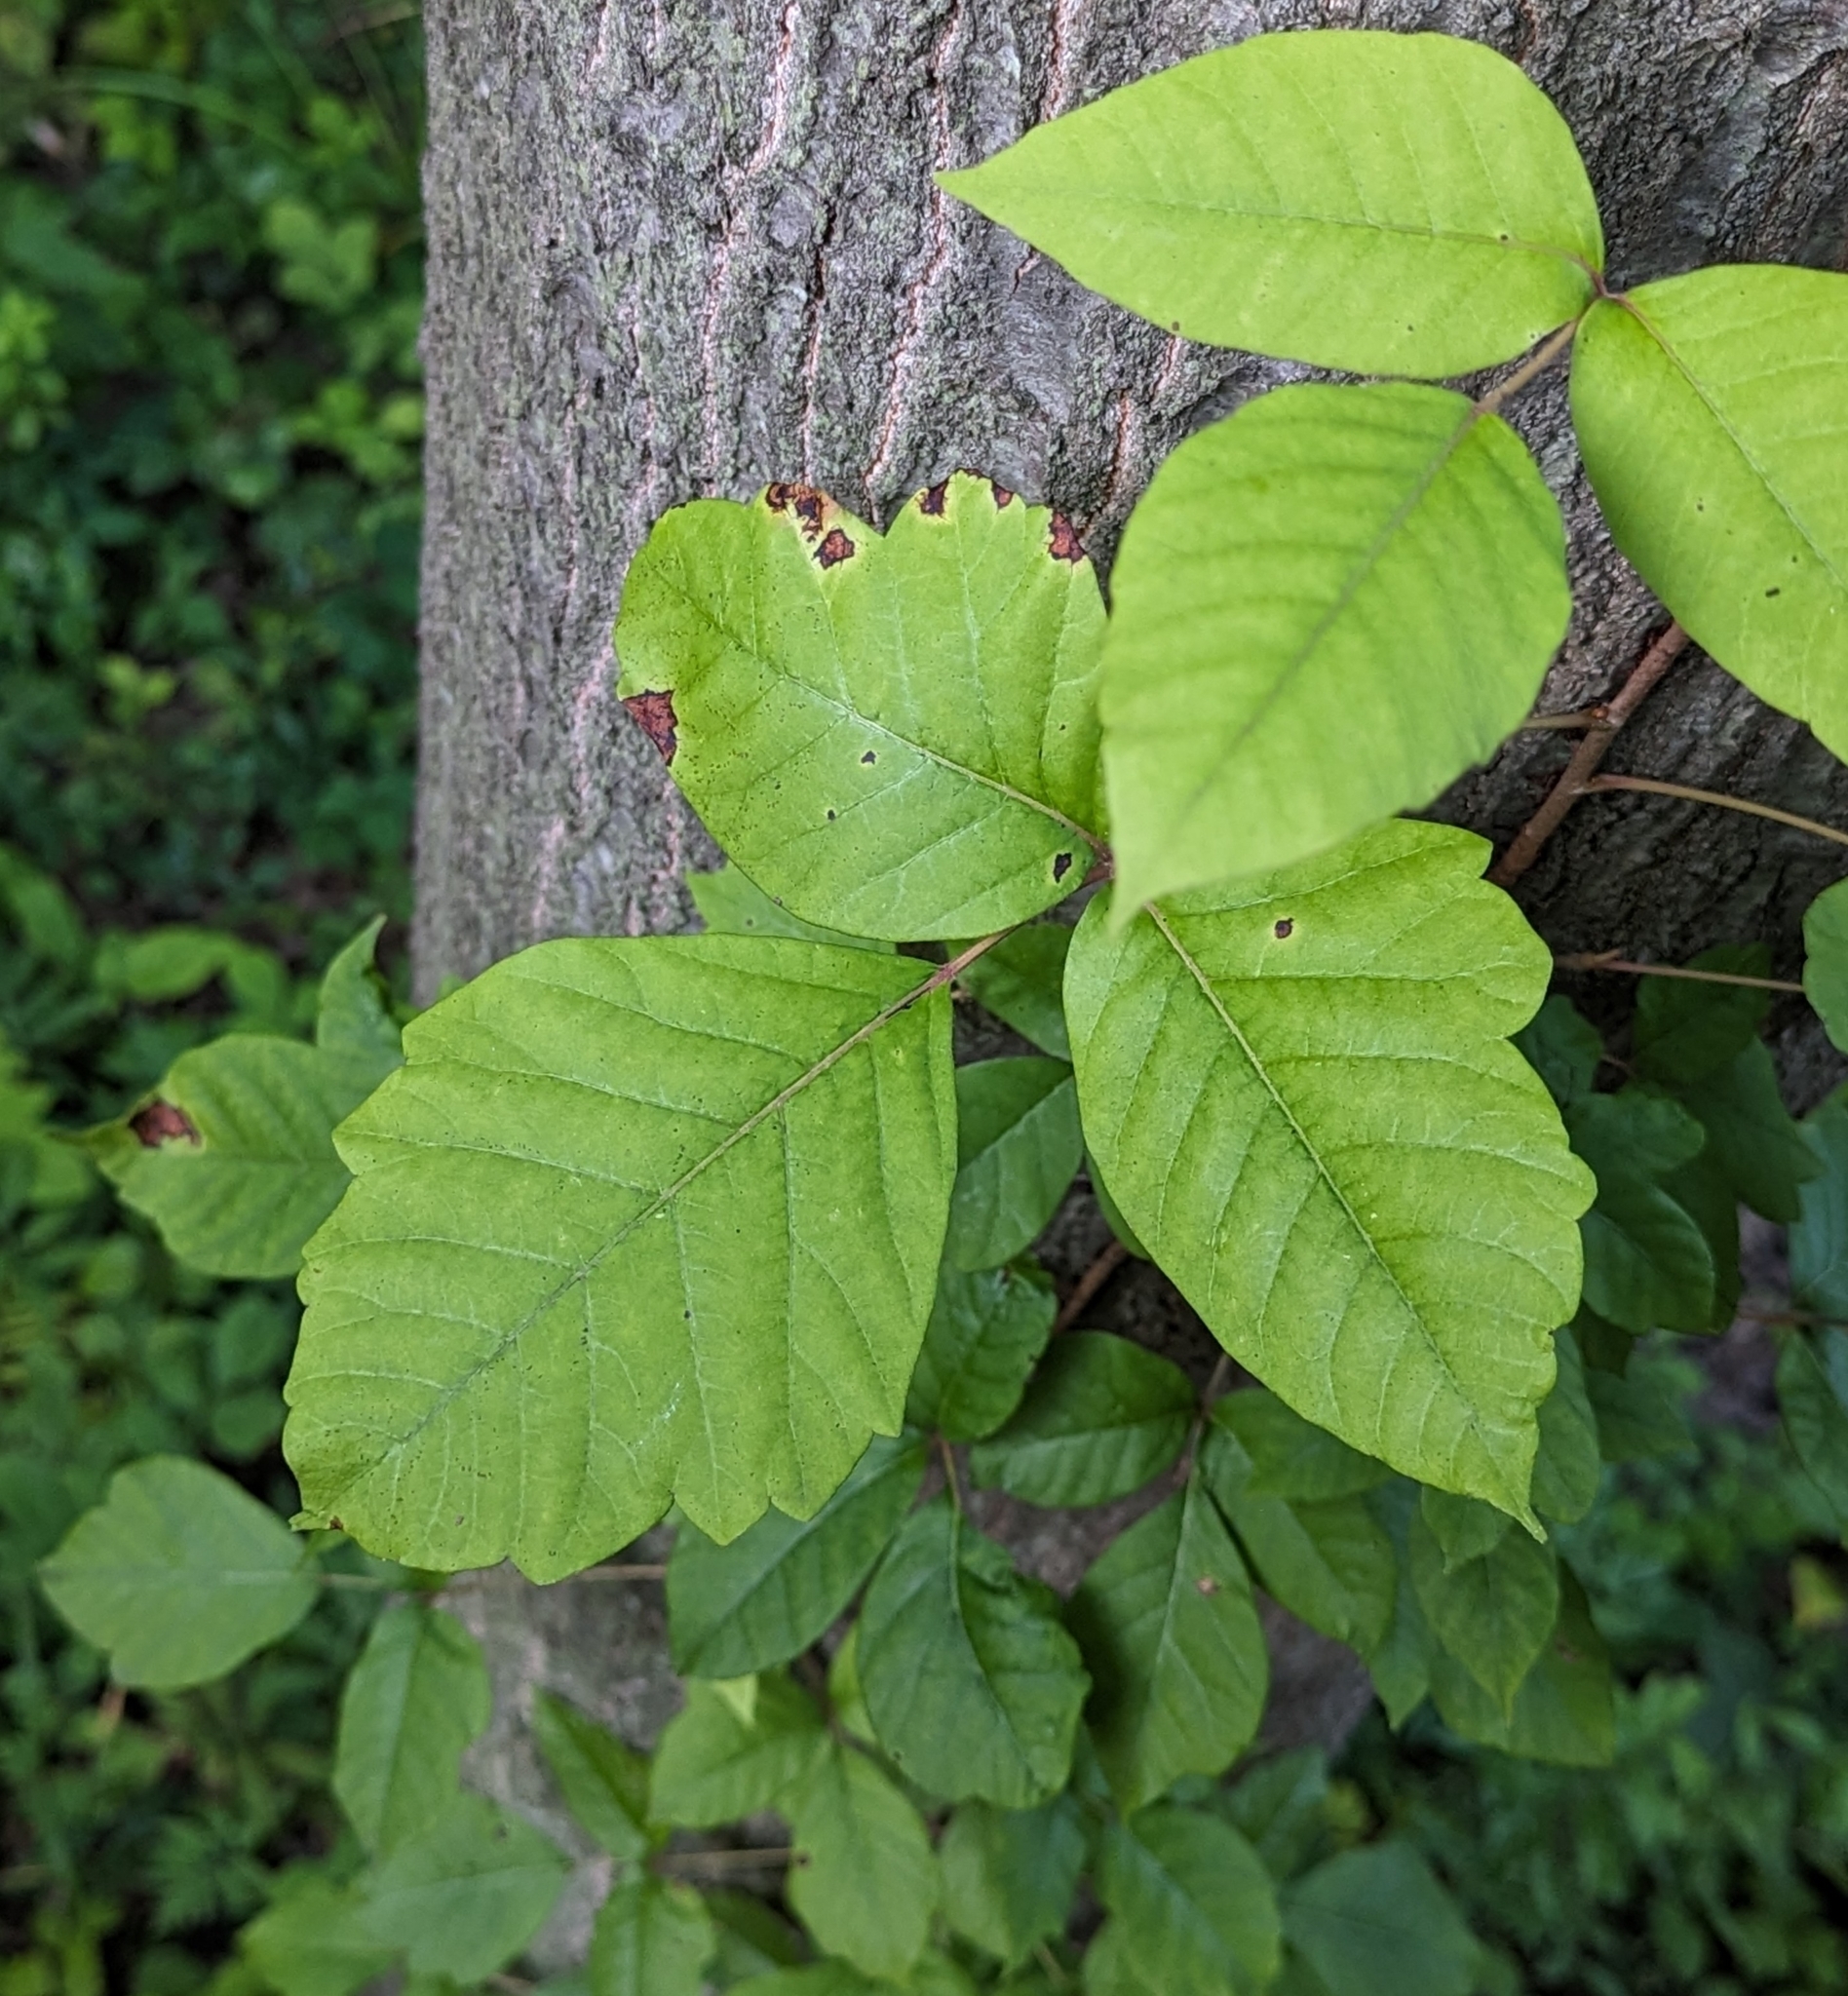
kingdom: Plantae
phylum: Tracheophyta
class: Magnoliopsida
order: Sapindales
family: Anacardiaceae
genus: Toxicodendron
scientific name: Toxicodendron radicans
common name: Poison ivy
